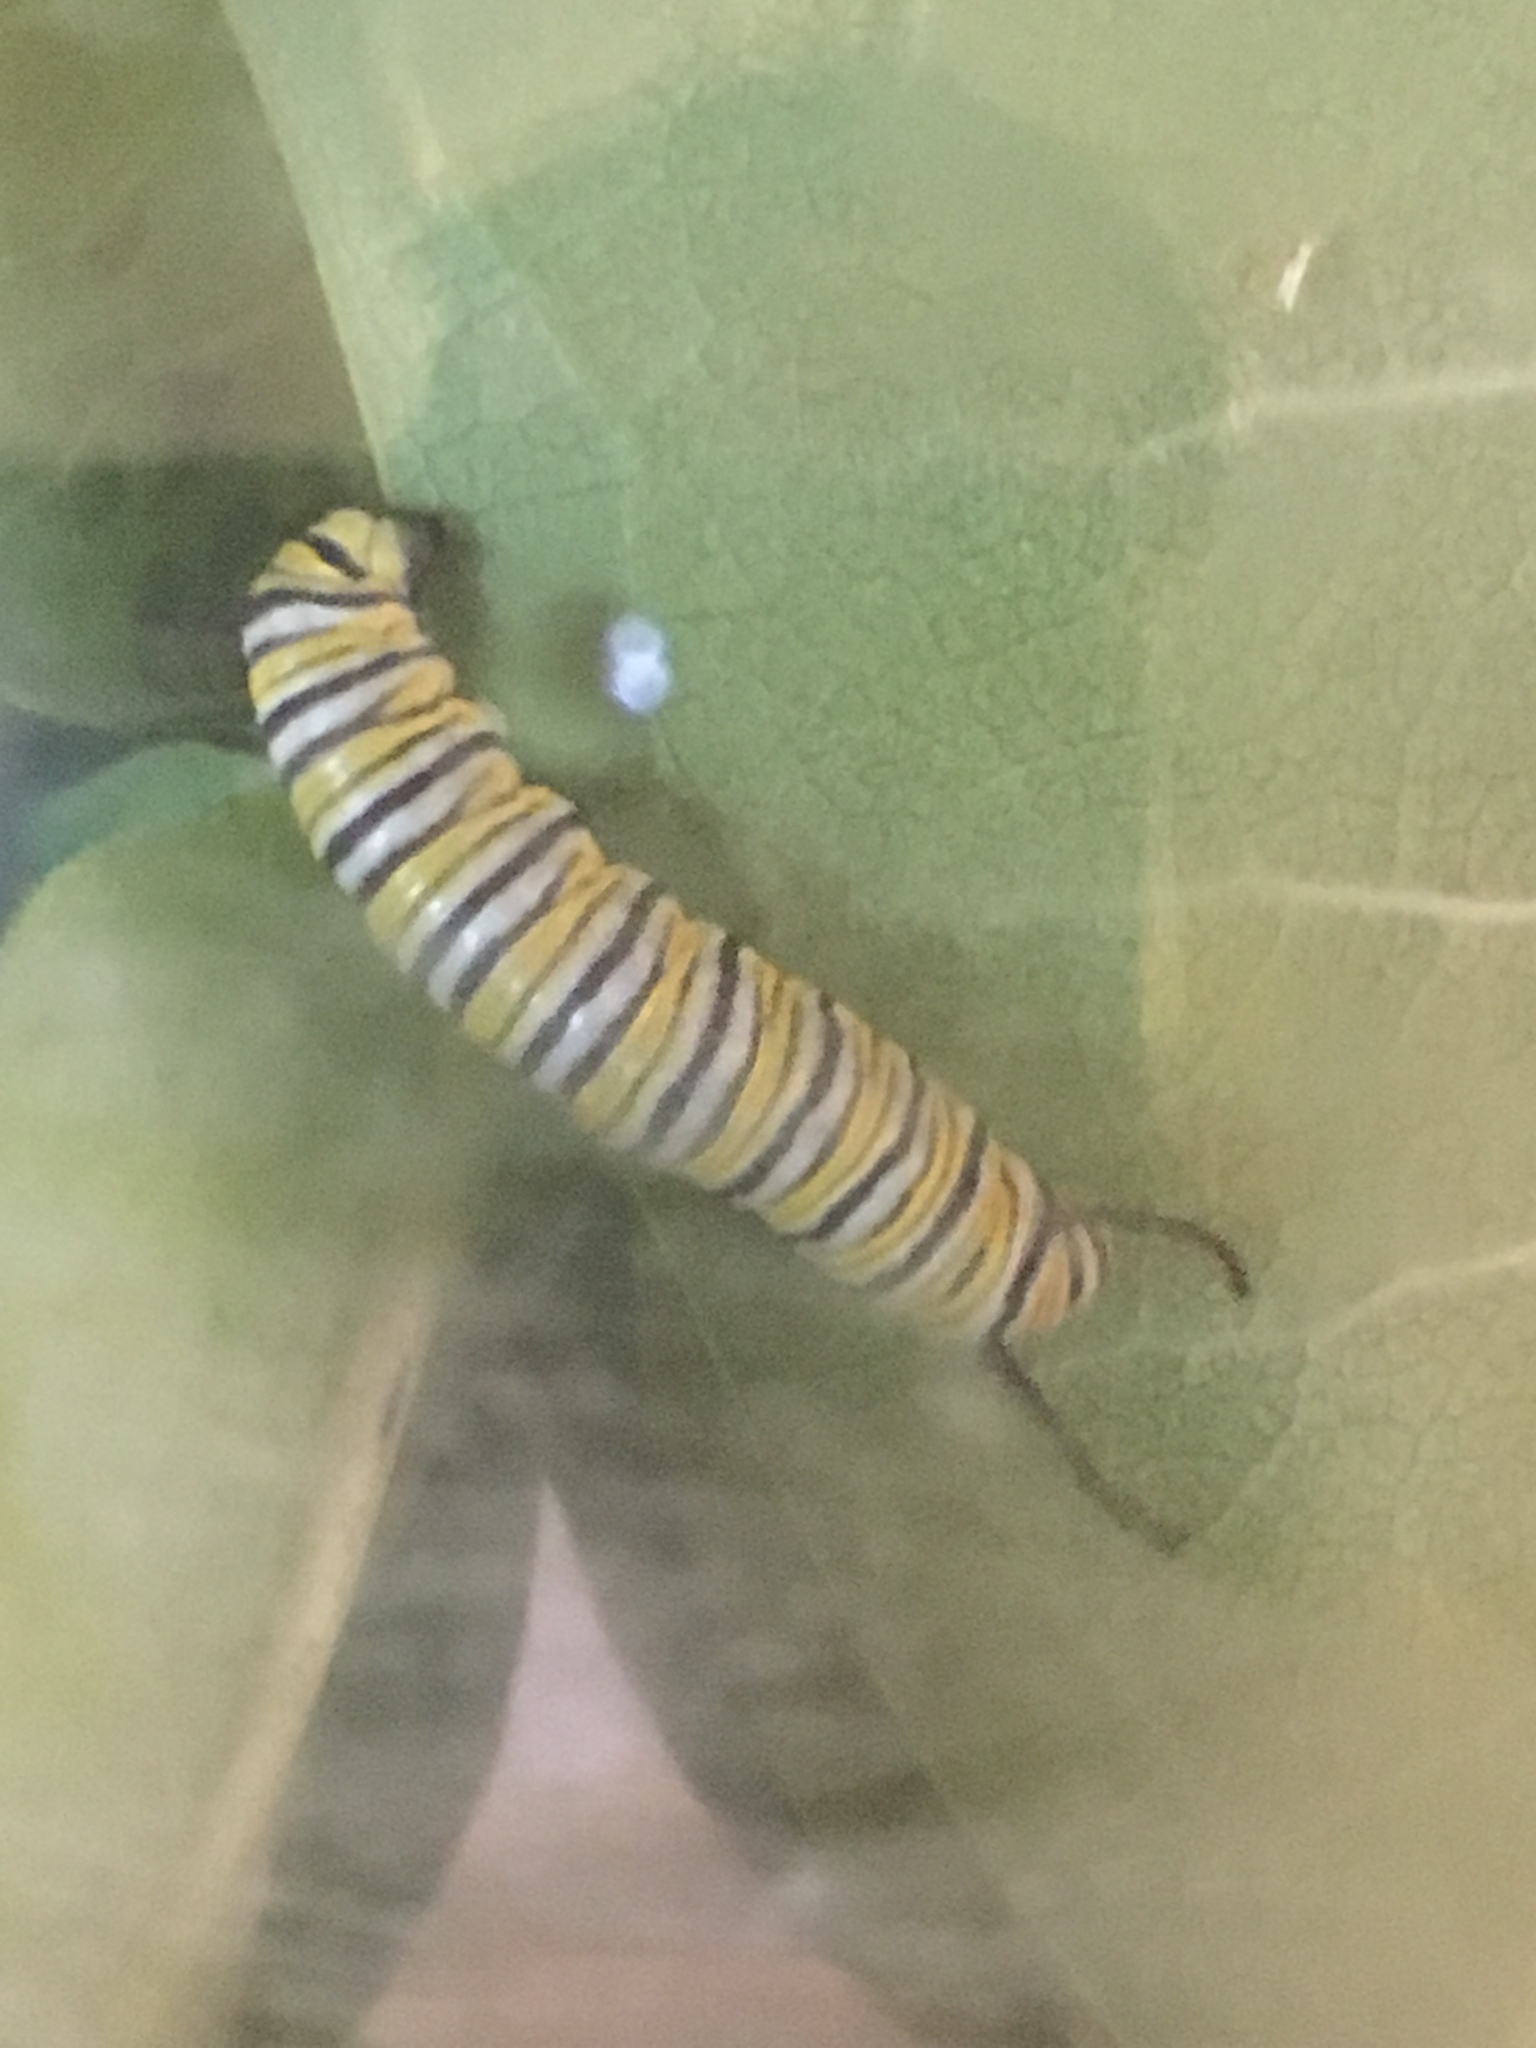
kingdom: Animalia
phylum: Arthropoda
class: Insecta
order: Lepidoptera
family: Nymphalidae
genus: Danaus
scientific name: Danaus plexippus
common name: Monarch
